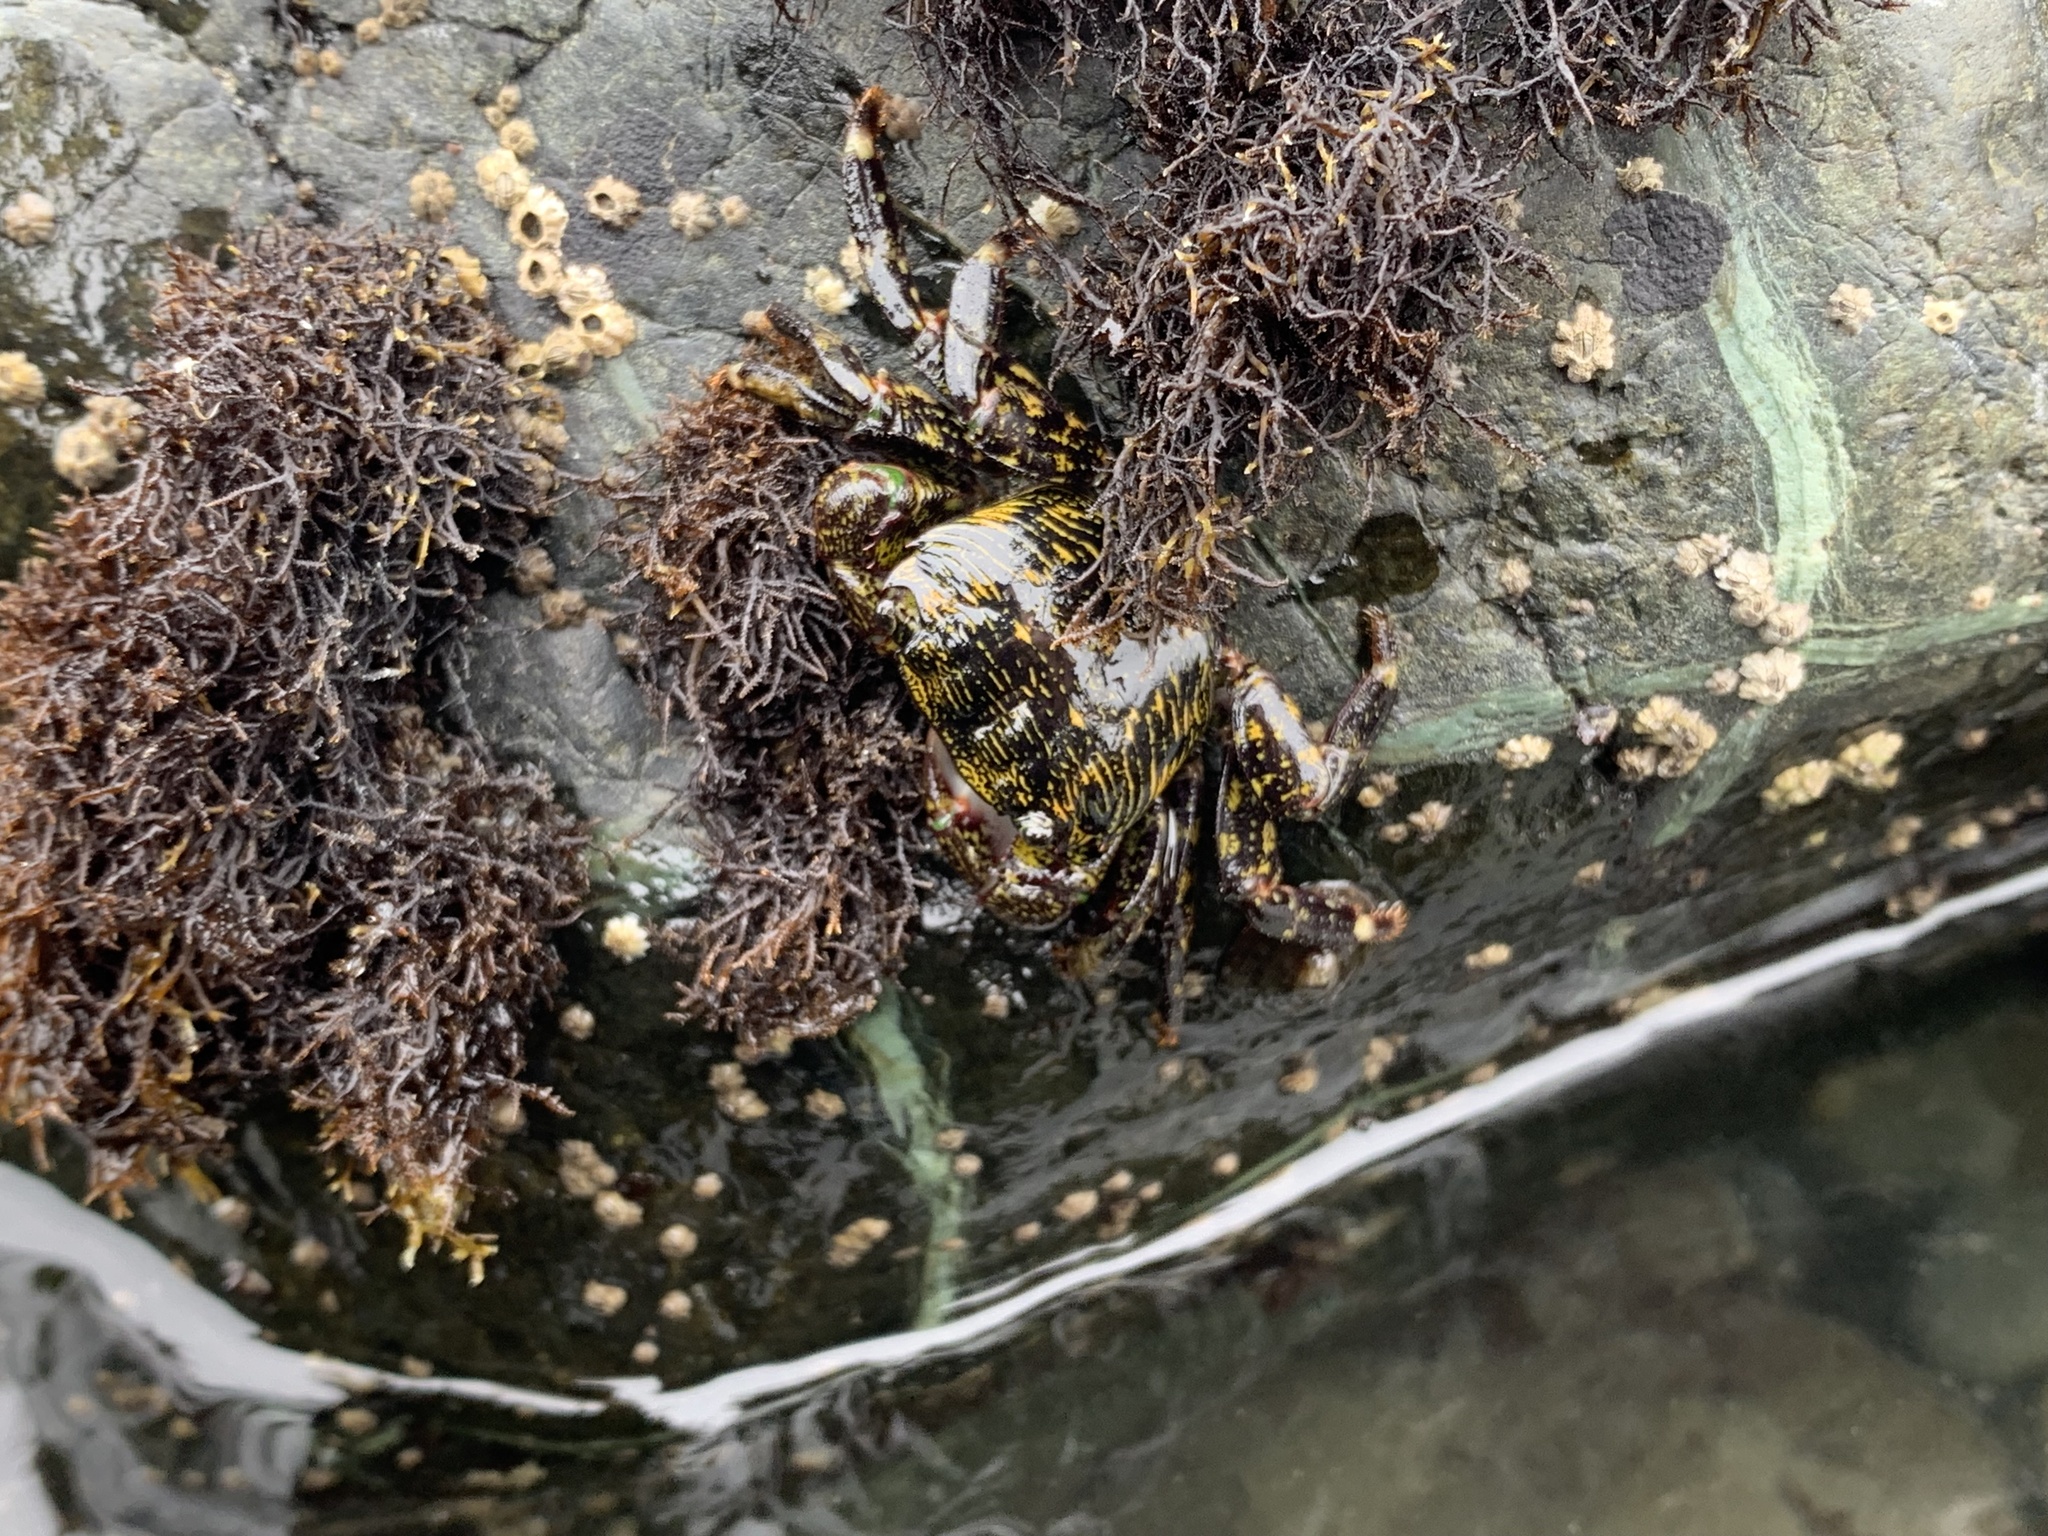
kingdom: Animalia
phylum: Arthropoda
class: Malacostraca
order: Decapoda
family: Grapsidae
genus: Pachygrapsus
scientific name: Pachygrapsus crassipes
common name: Striped shore crab
